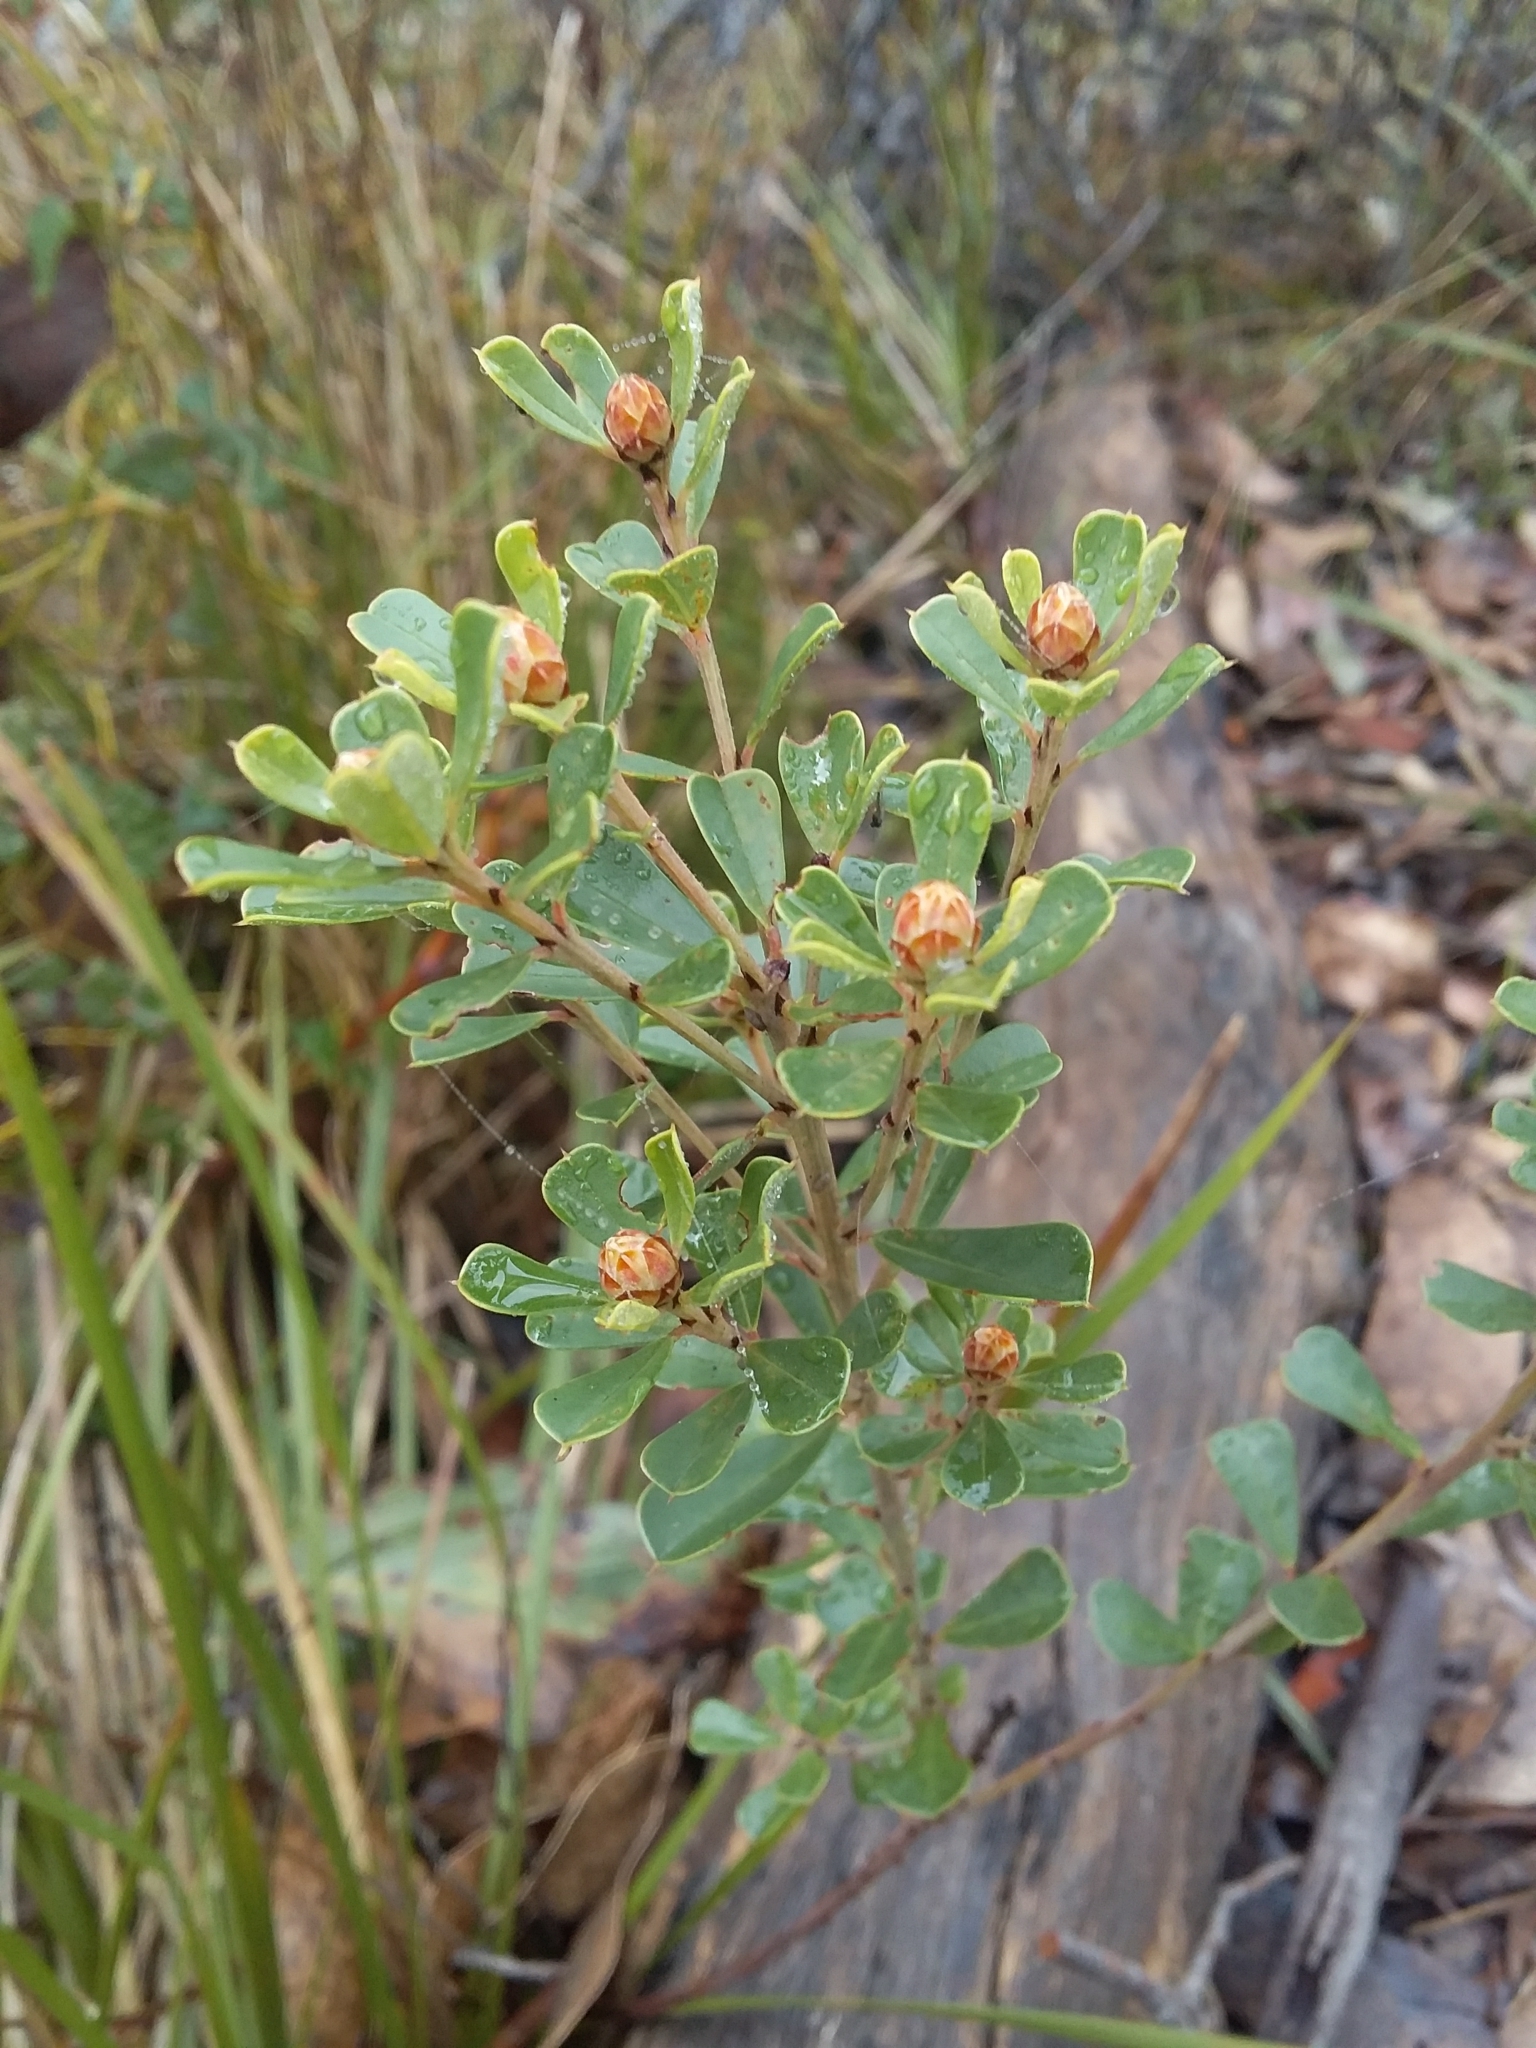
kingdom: Plantae
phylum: Tracheophyta
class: Magnoliopsida
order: Fabales
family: Fabaceae
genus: Pultenaea
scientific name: Pultenaea daphnoides
